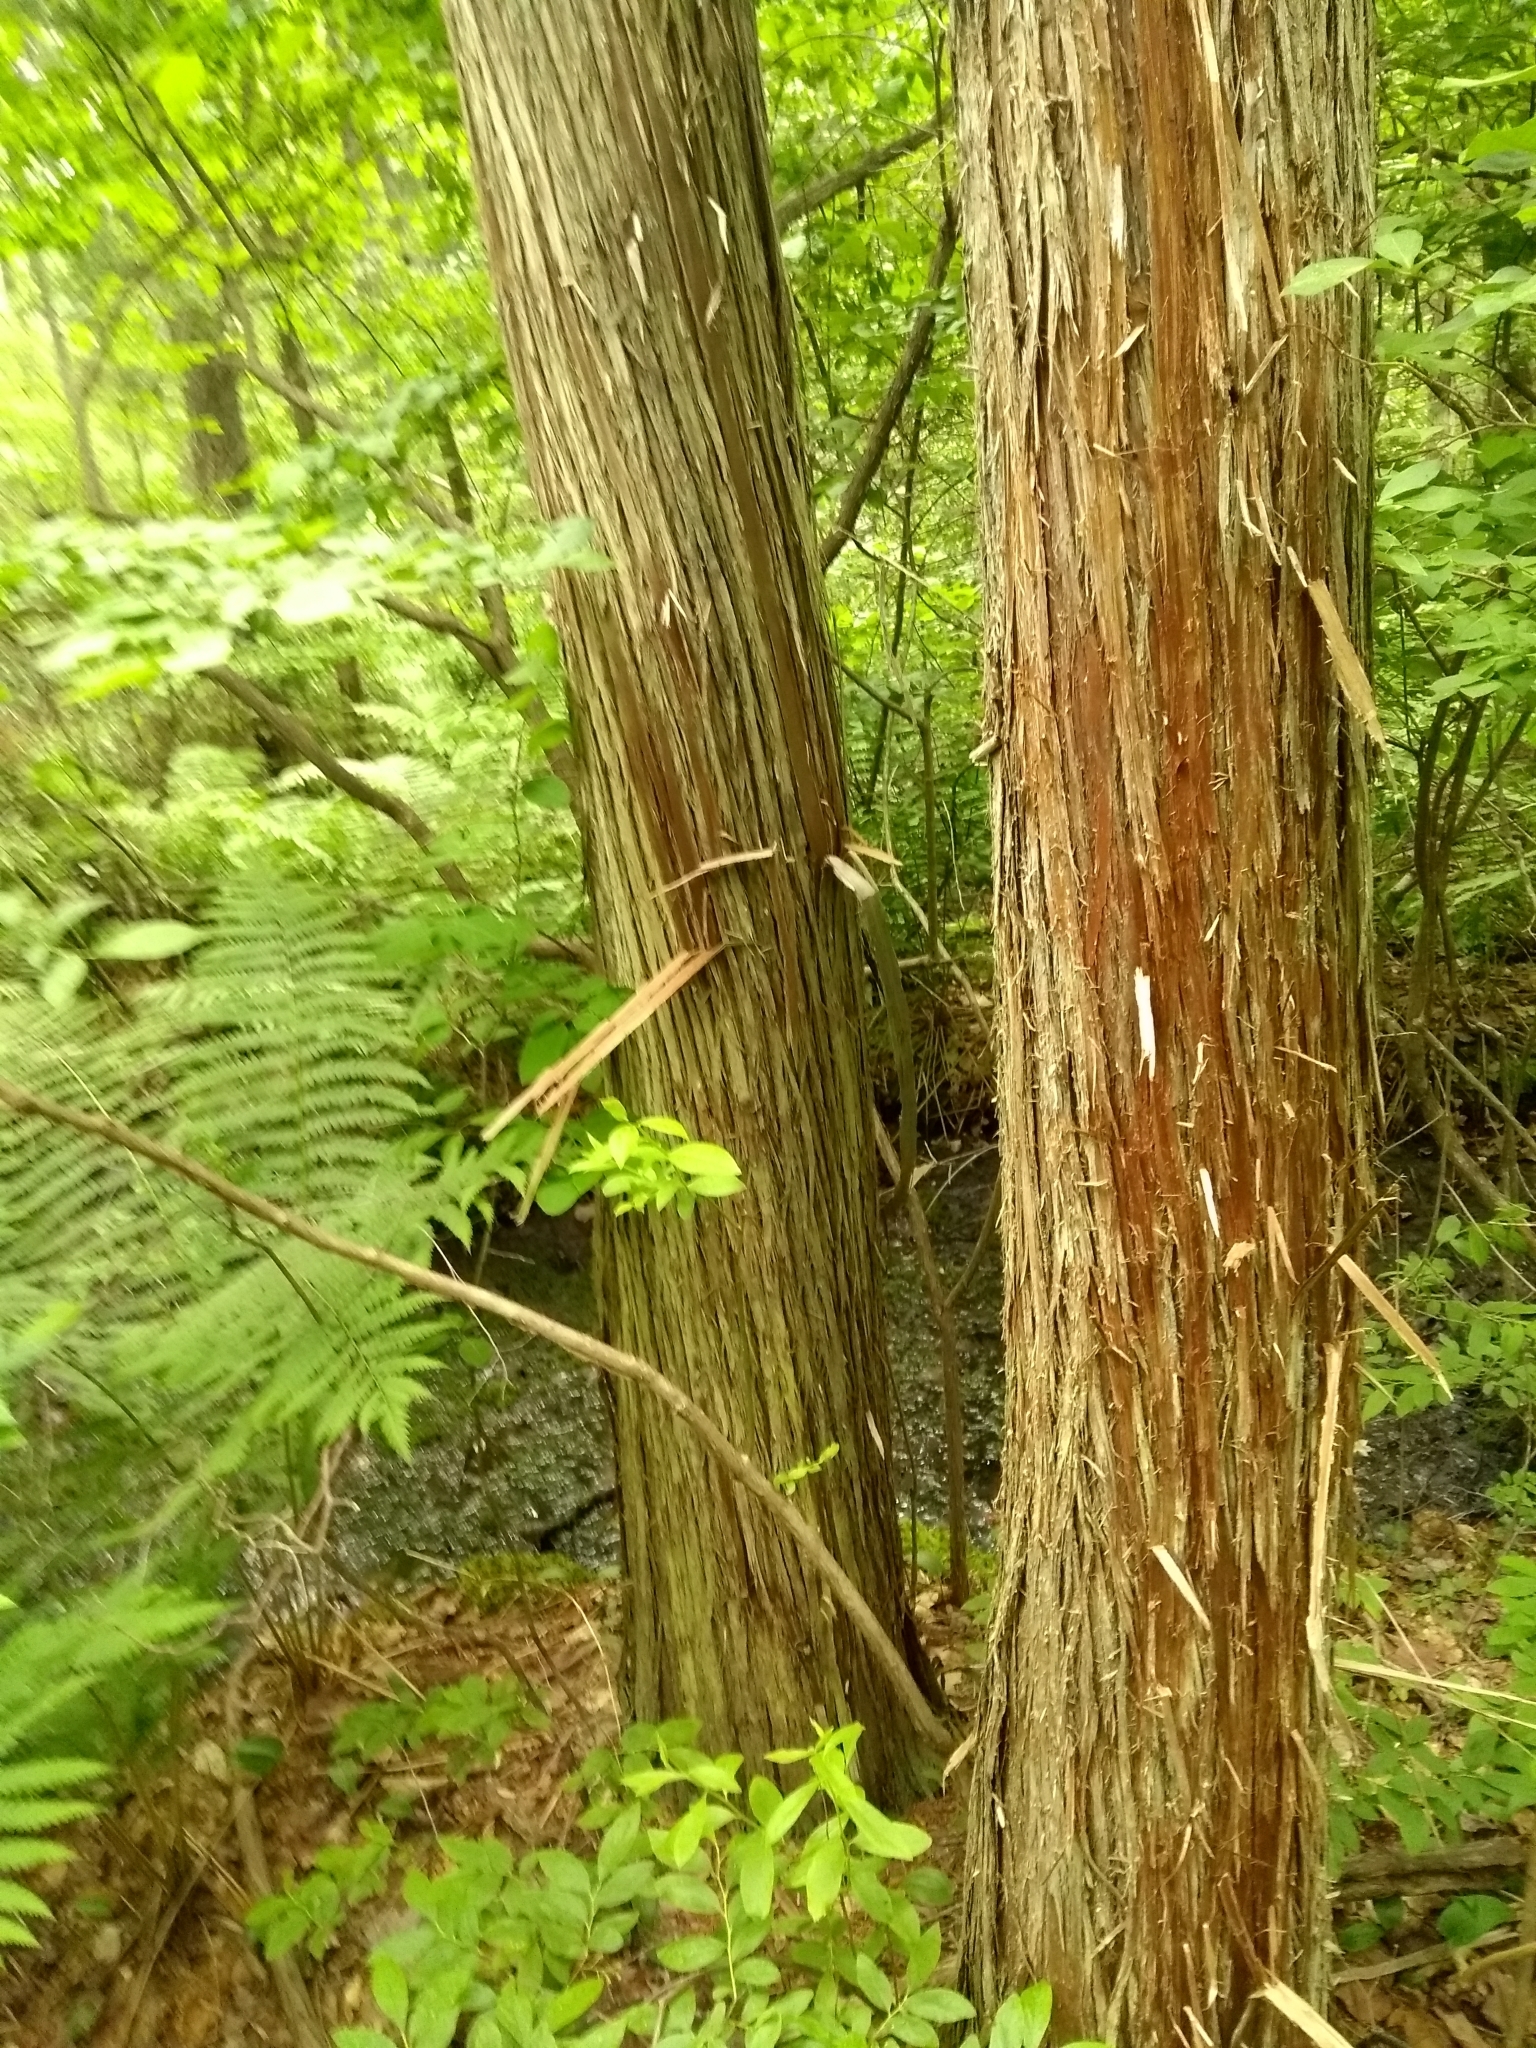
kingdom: Plantae
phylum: Tracheophyta
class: Pinopsida
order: Pinales
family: Cupressaceae
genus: Chamaecyparis
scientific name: Chamaecyparis thyoides
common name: Atlantic white cedar
